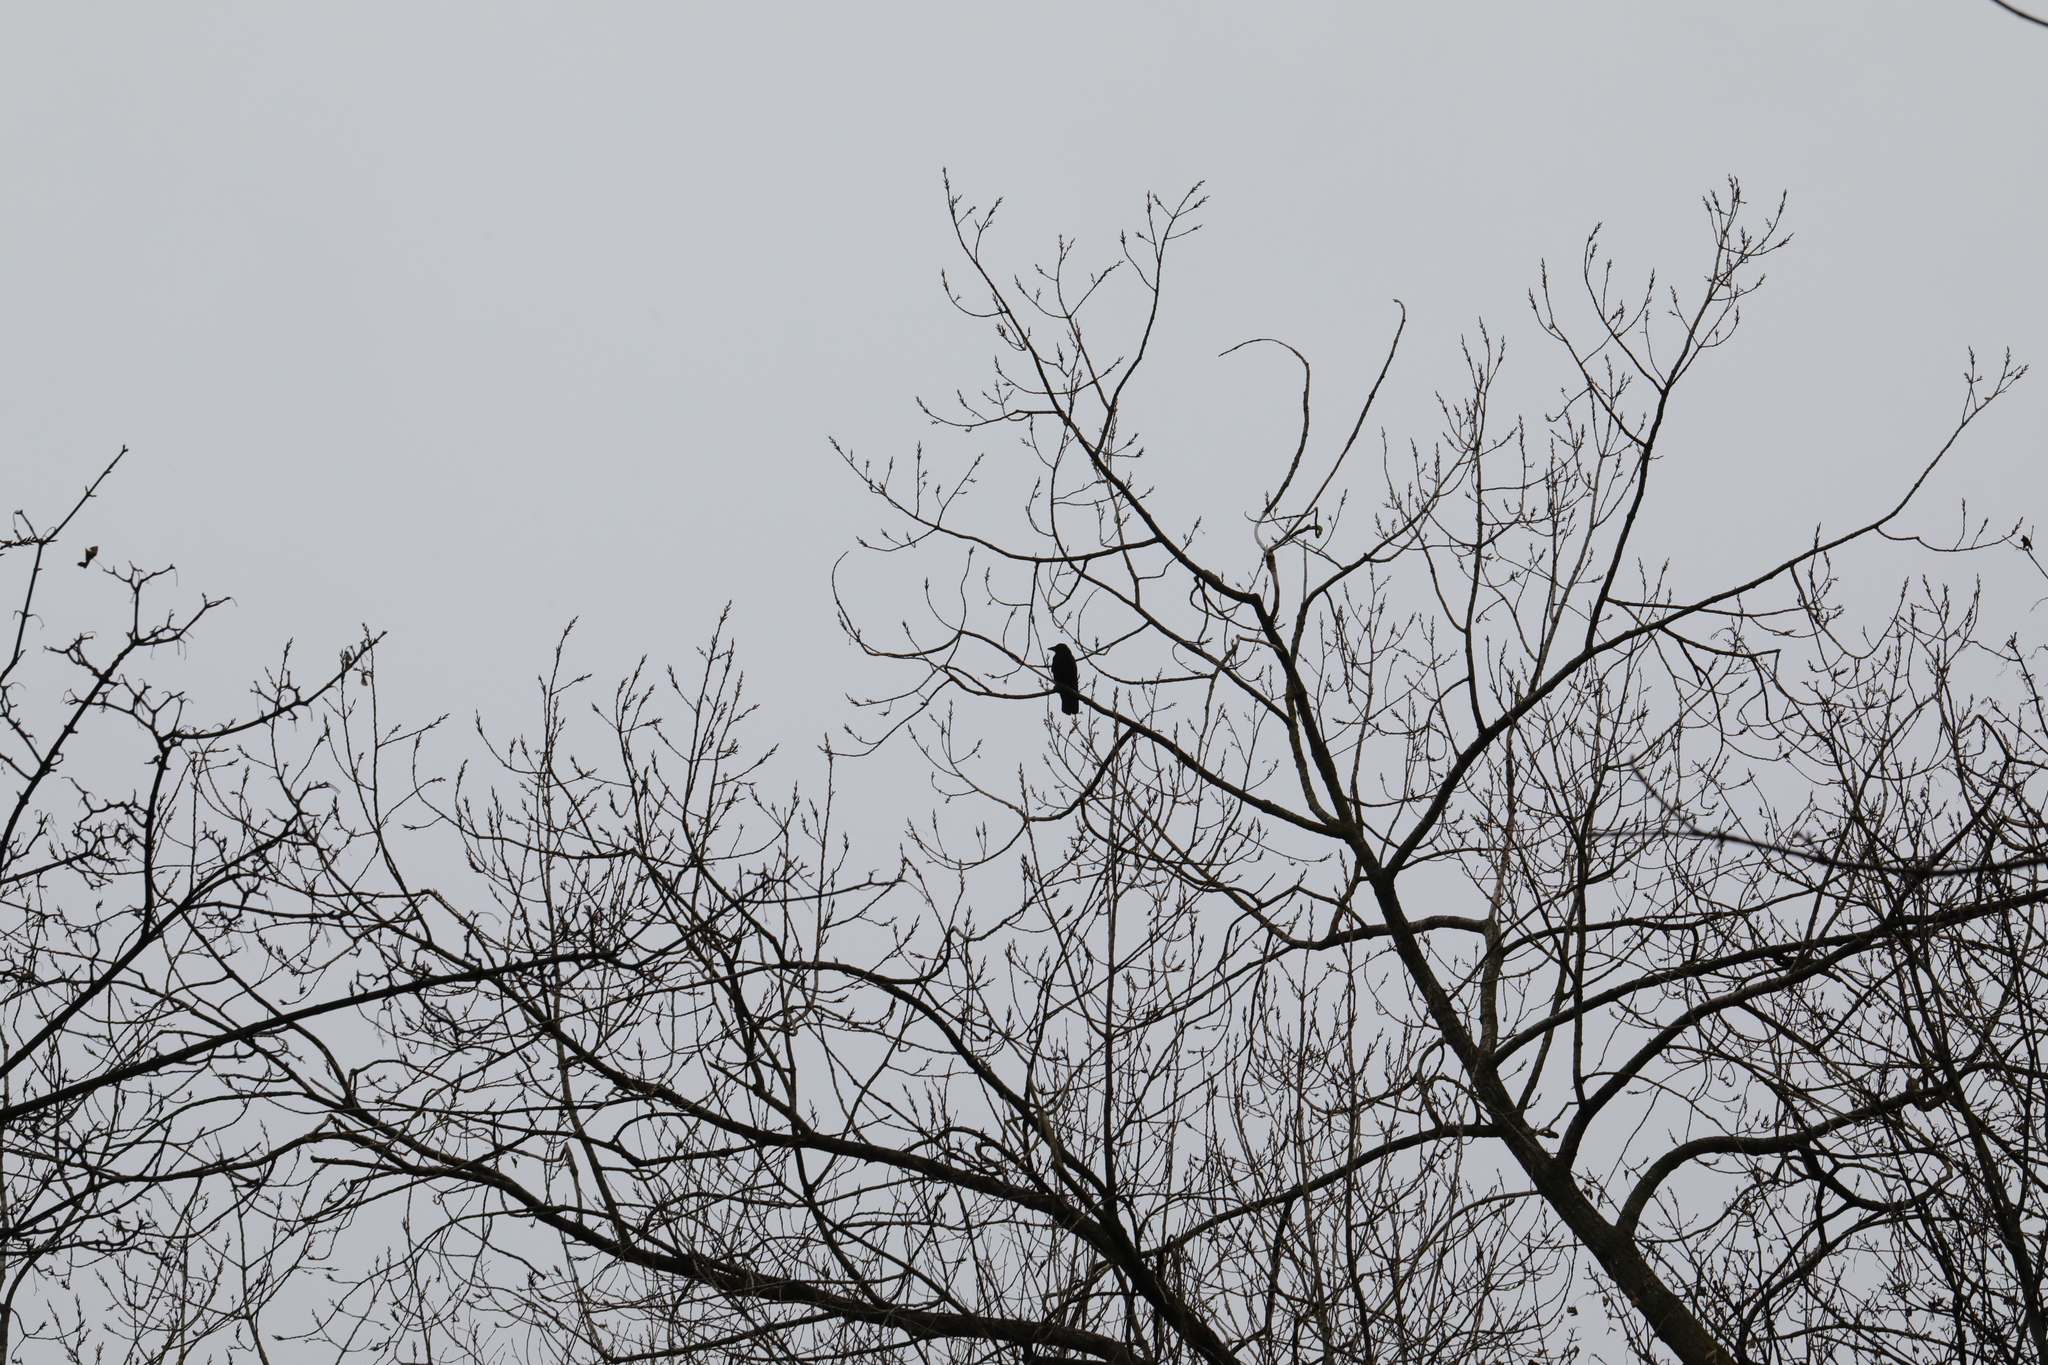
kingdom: Animalia
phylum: Chordata
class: Aves
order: Passeriformes
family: Corvidae
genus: Corvus
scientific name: Corvus corone
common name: Carrion crow
